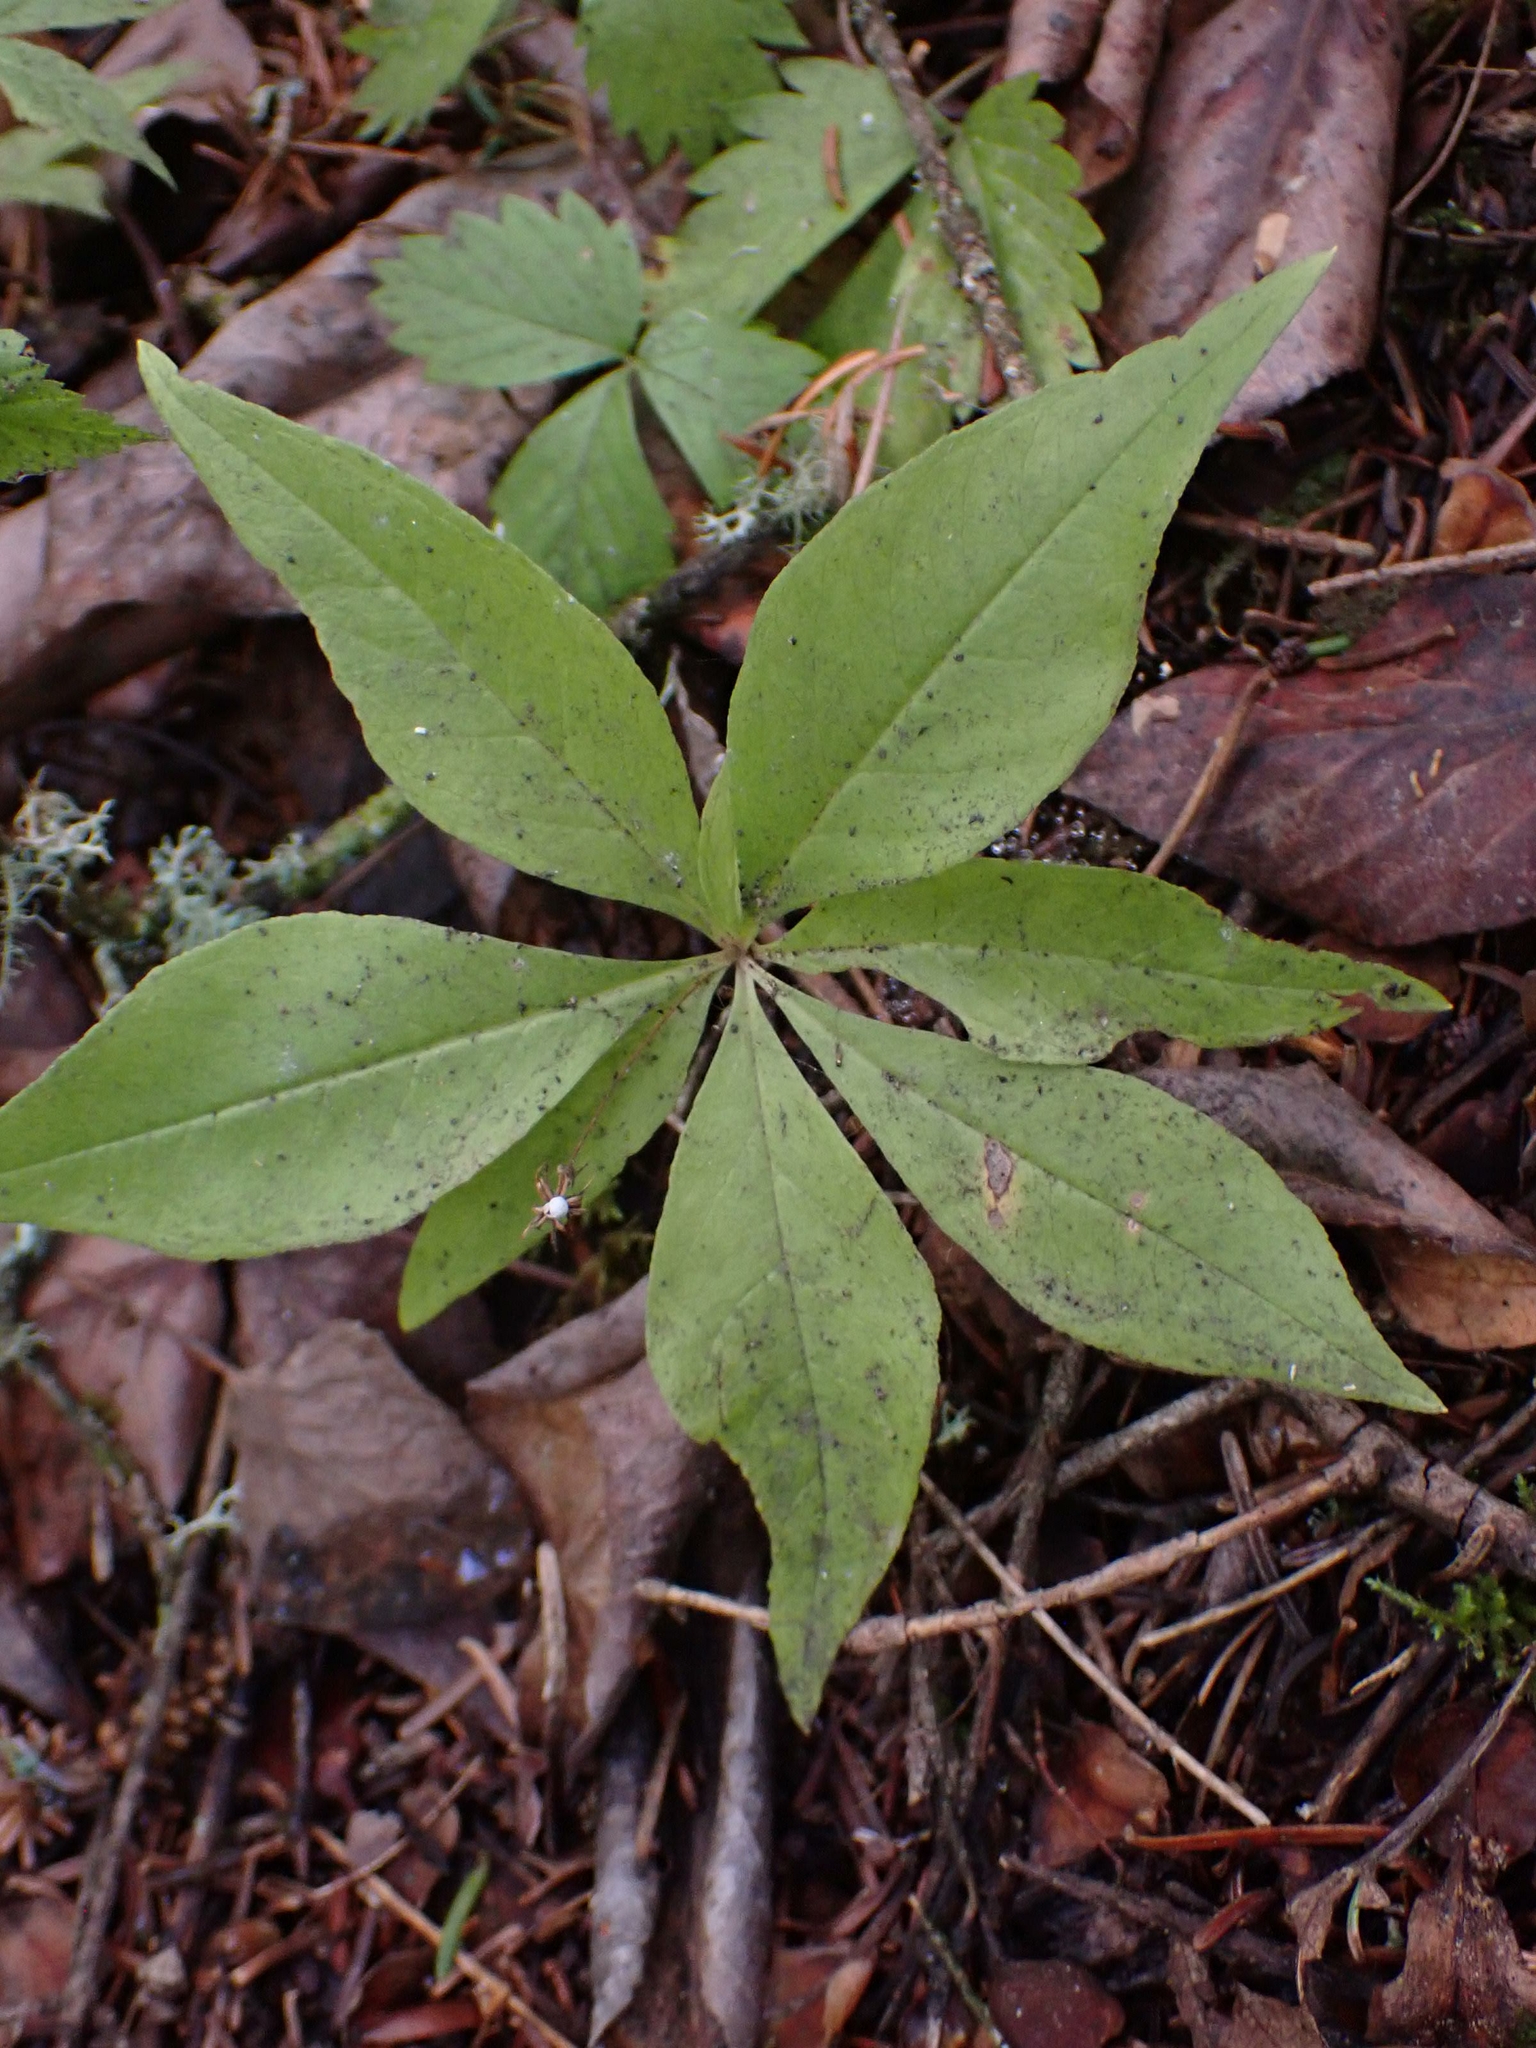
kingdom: Plantae
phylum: Tracheophyta
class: Magnoliopsida
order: Ericales
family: Primulaceae
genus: Lysimachia
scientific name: Lysimachia borealis
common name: American starflower
